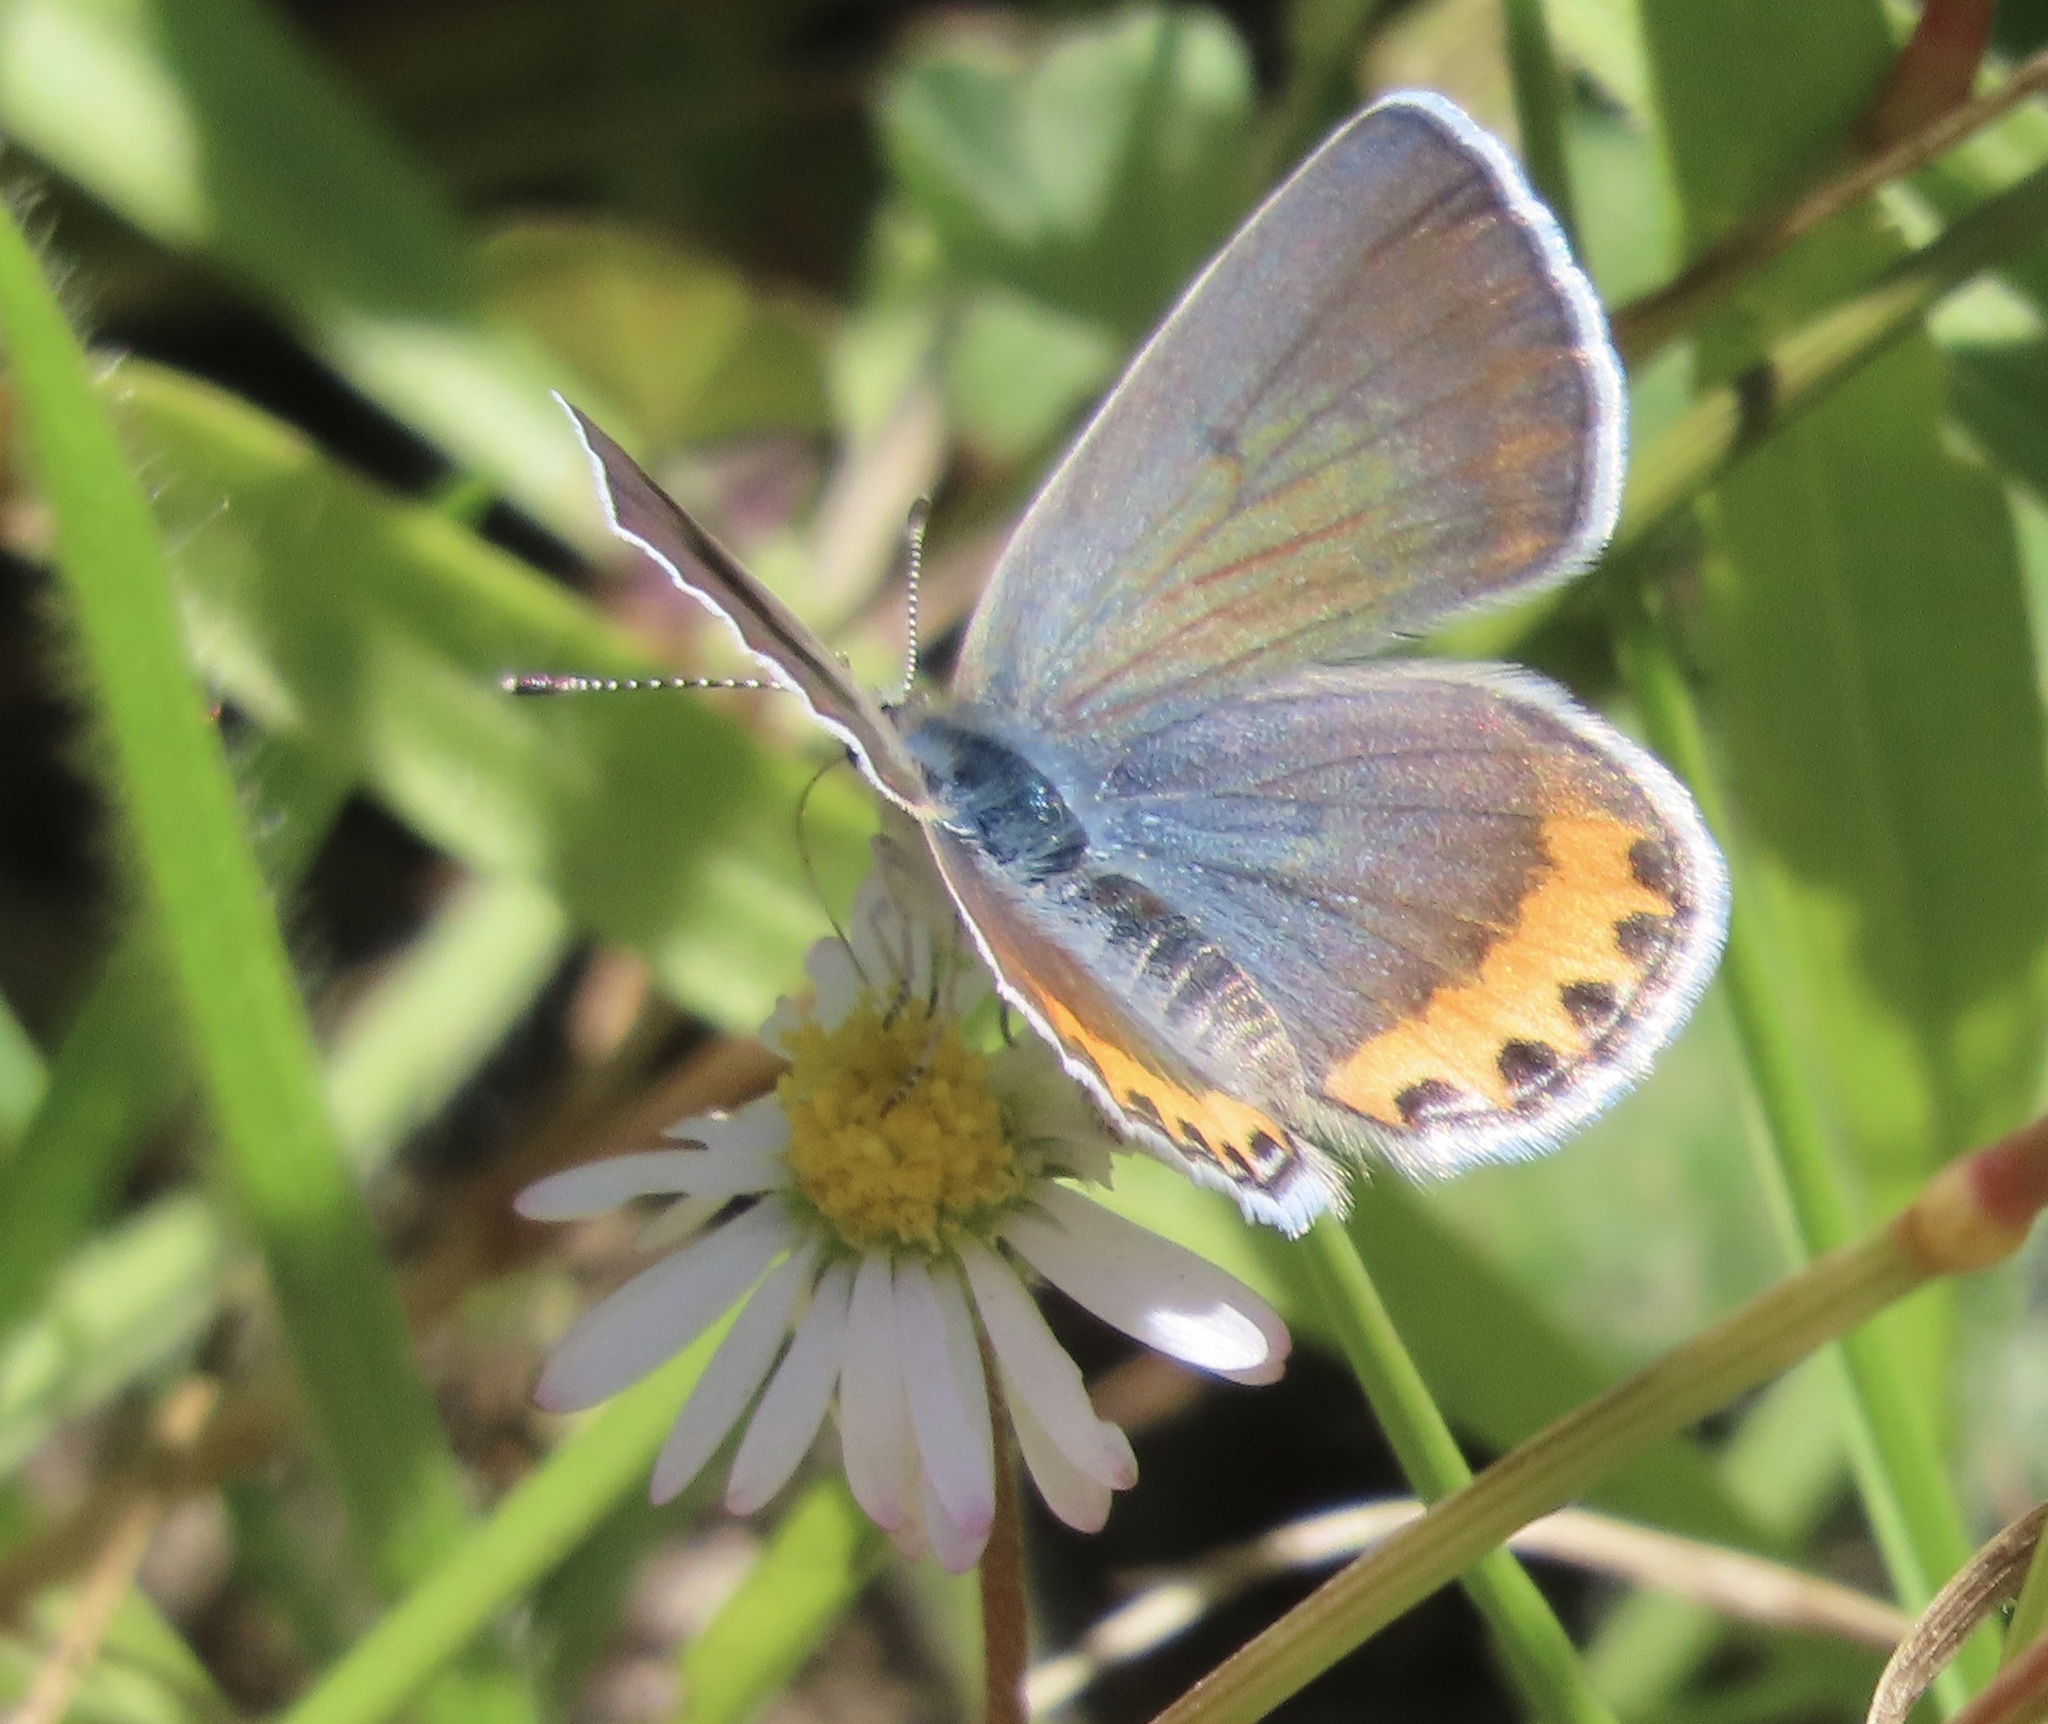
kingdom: Animalia
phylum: Arthropoda
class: Insecta
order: Lepidoptera
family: Lycaenidae
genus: Icaricia
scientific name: Icaricia acmon
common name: Acmon blue
